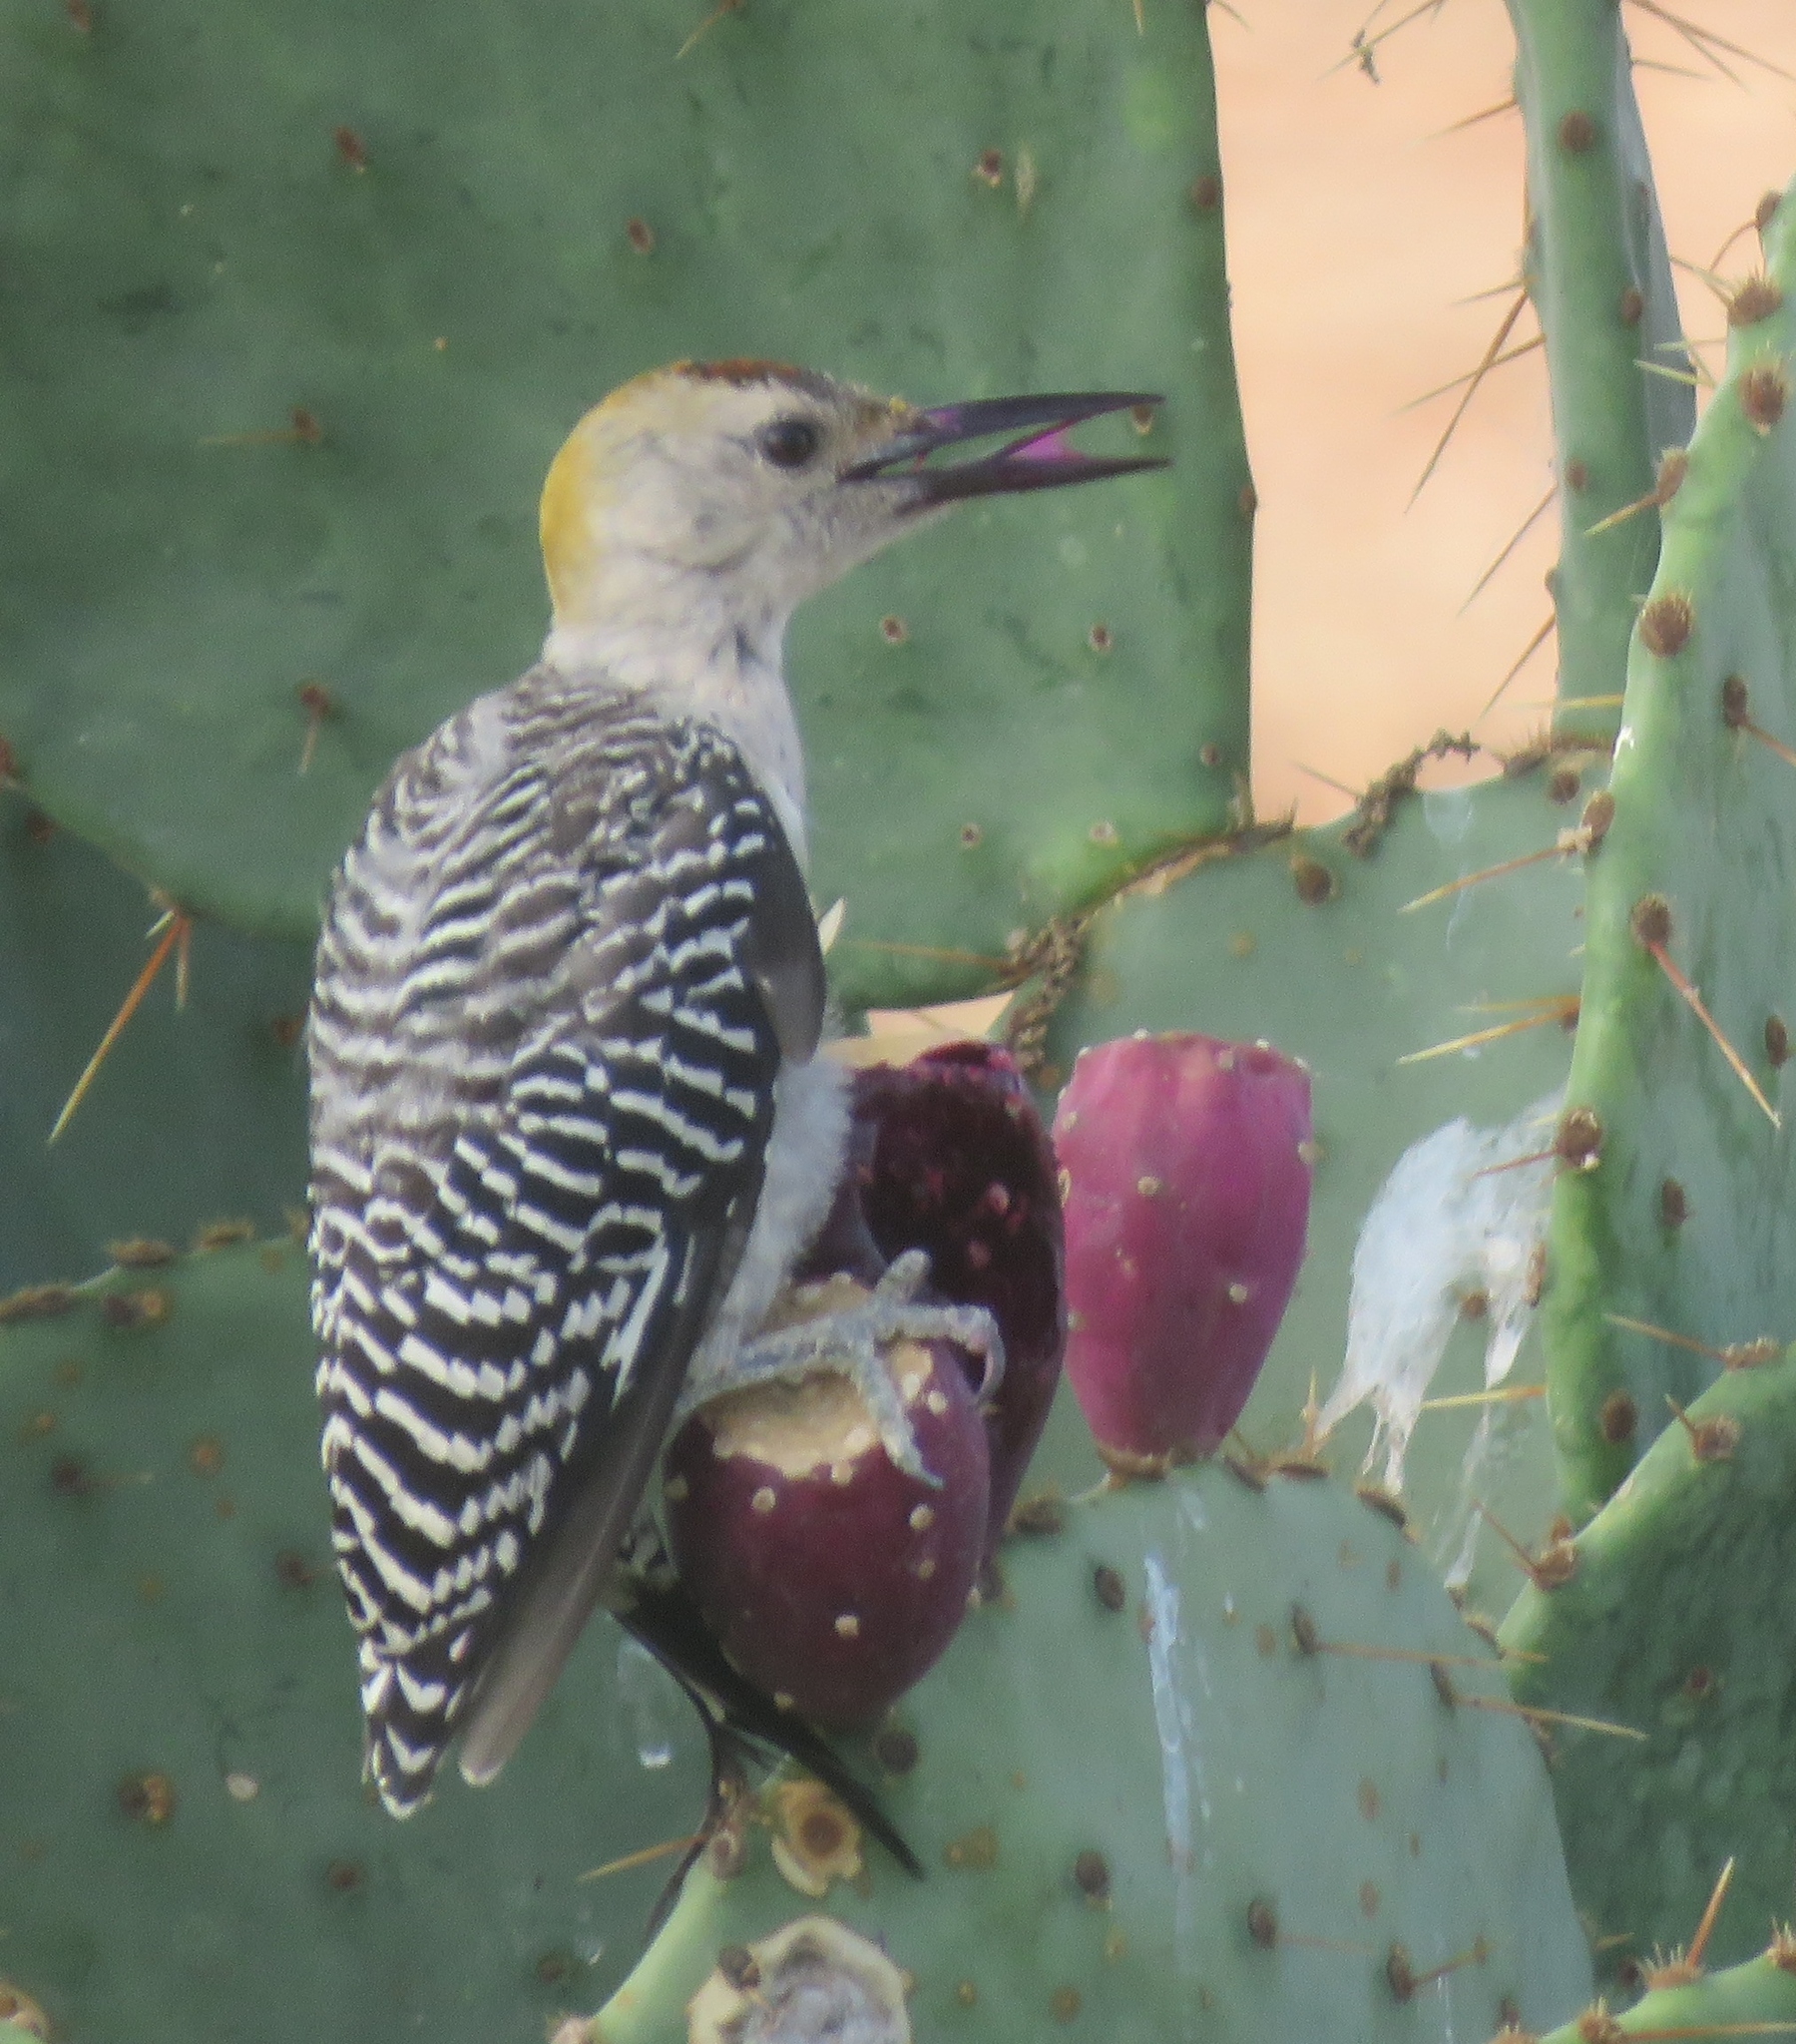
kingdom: Animalia
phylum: Chordata
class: Aves
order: Piciformes
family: Picidae
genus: Melanerpes
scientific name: Melanerpes aurifrons
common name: Golden-fronted woodpecker
